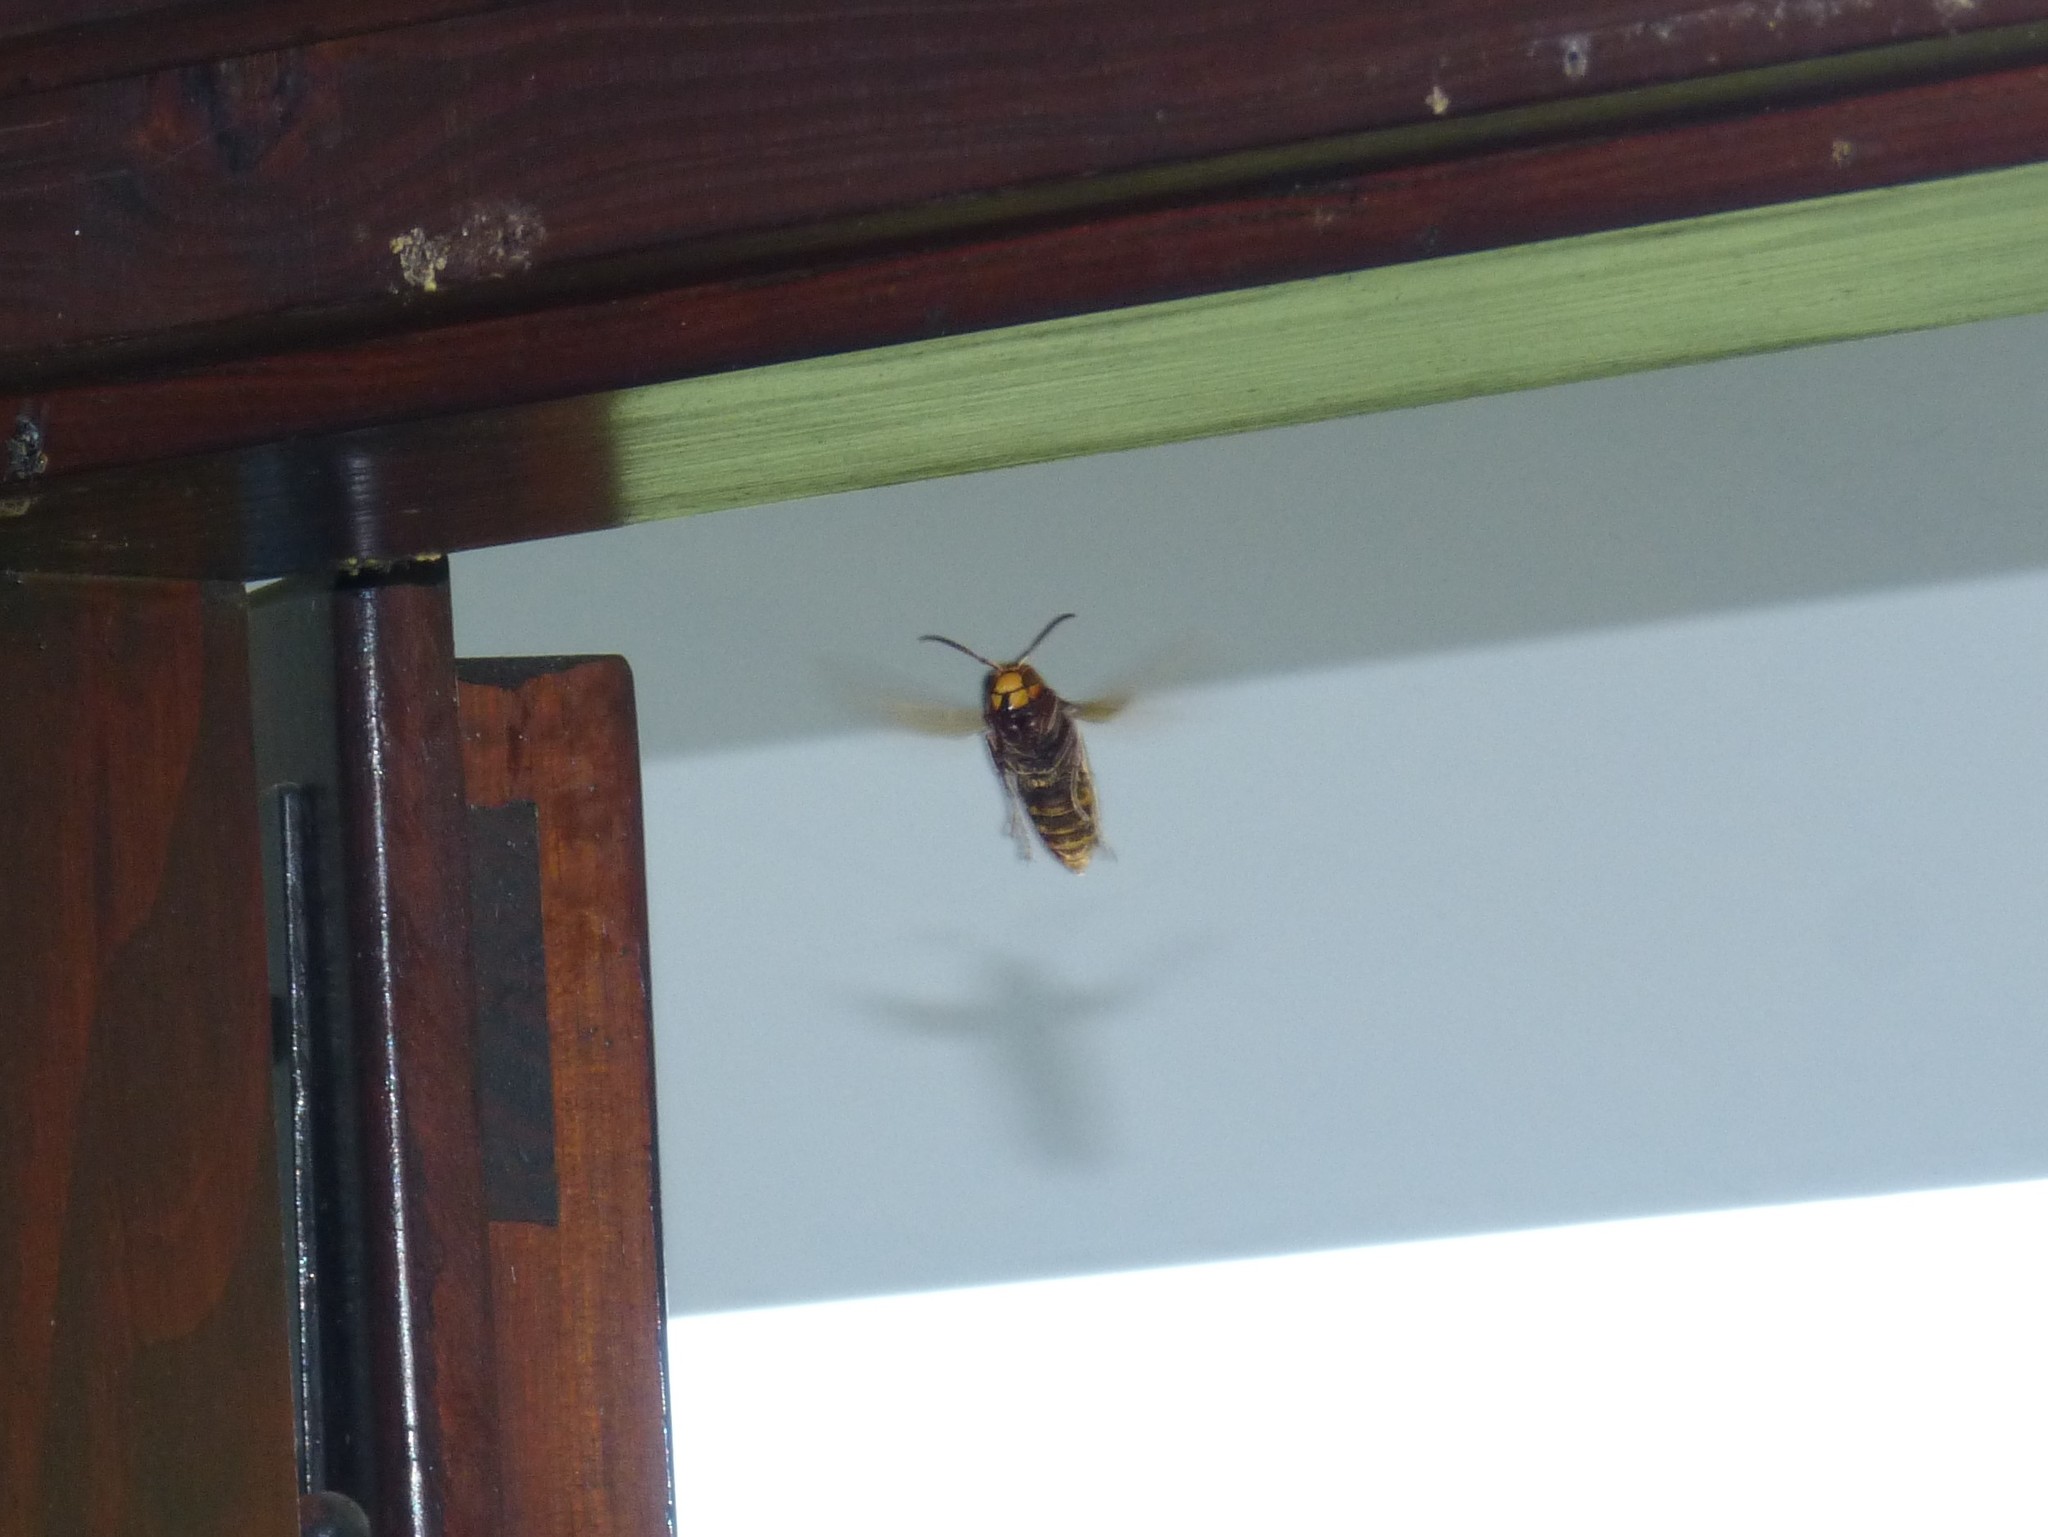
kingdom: Animalia
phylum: Arthropoda
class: Insecta
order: Hymenoptera
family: Vespidae
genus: Vespa
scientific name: Vespa crabro
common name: Hornet
